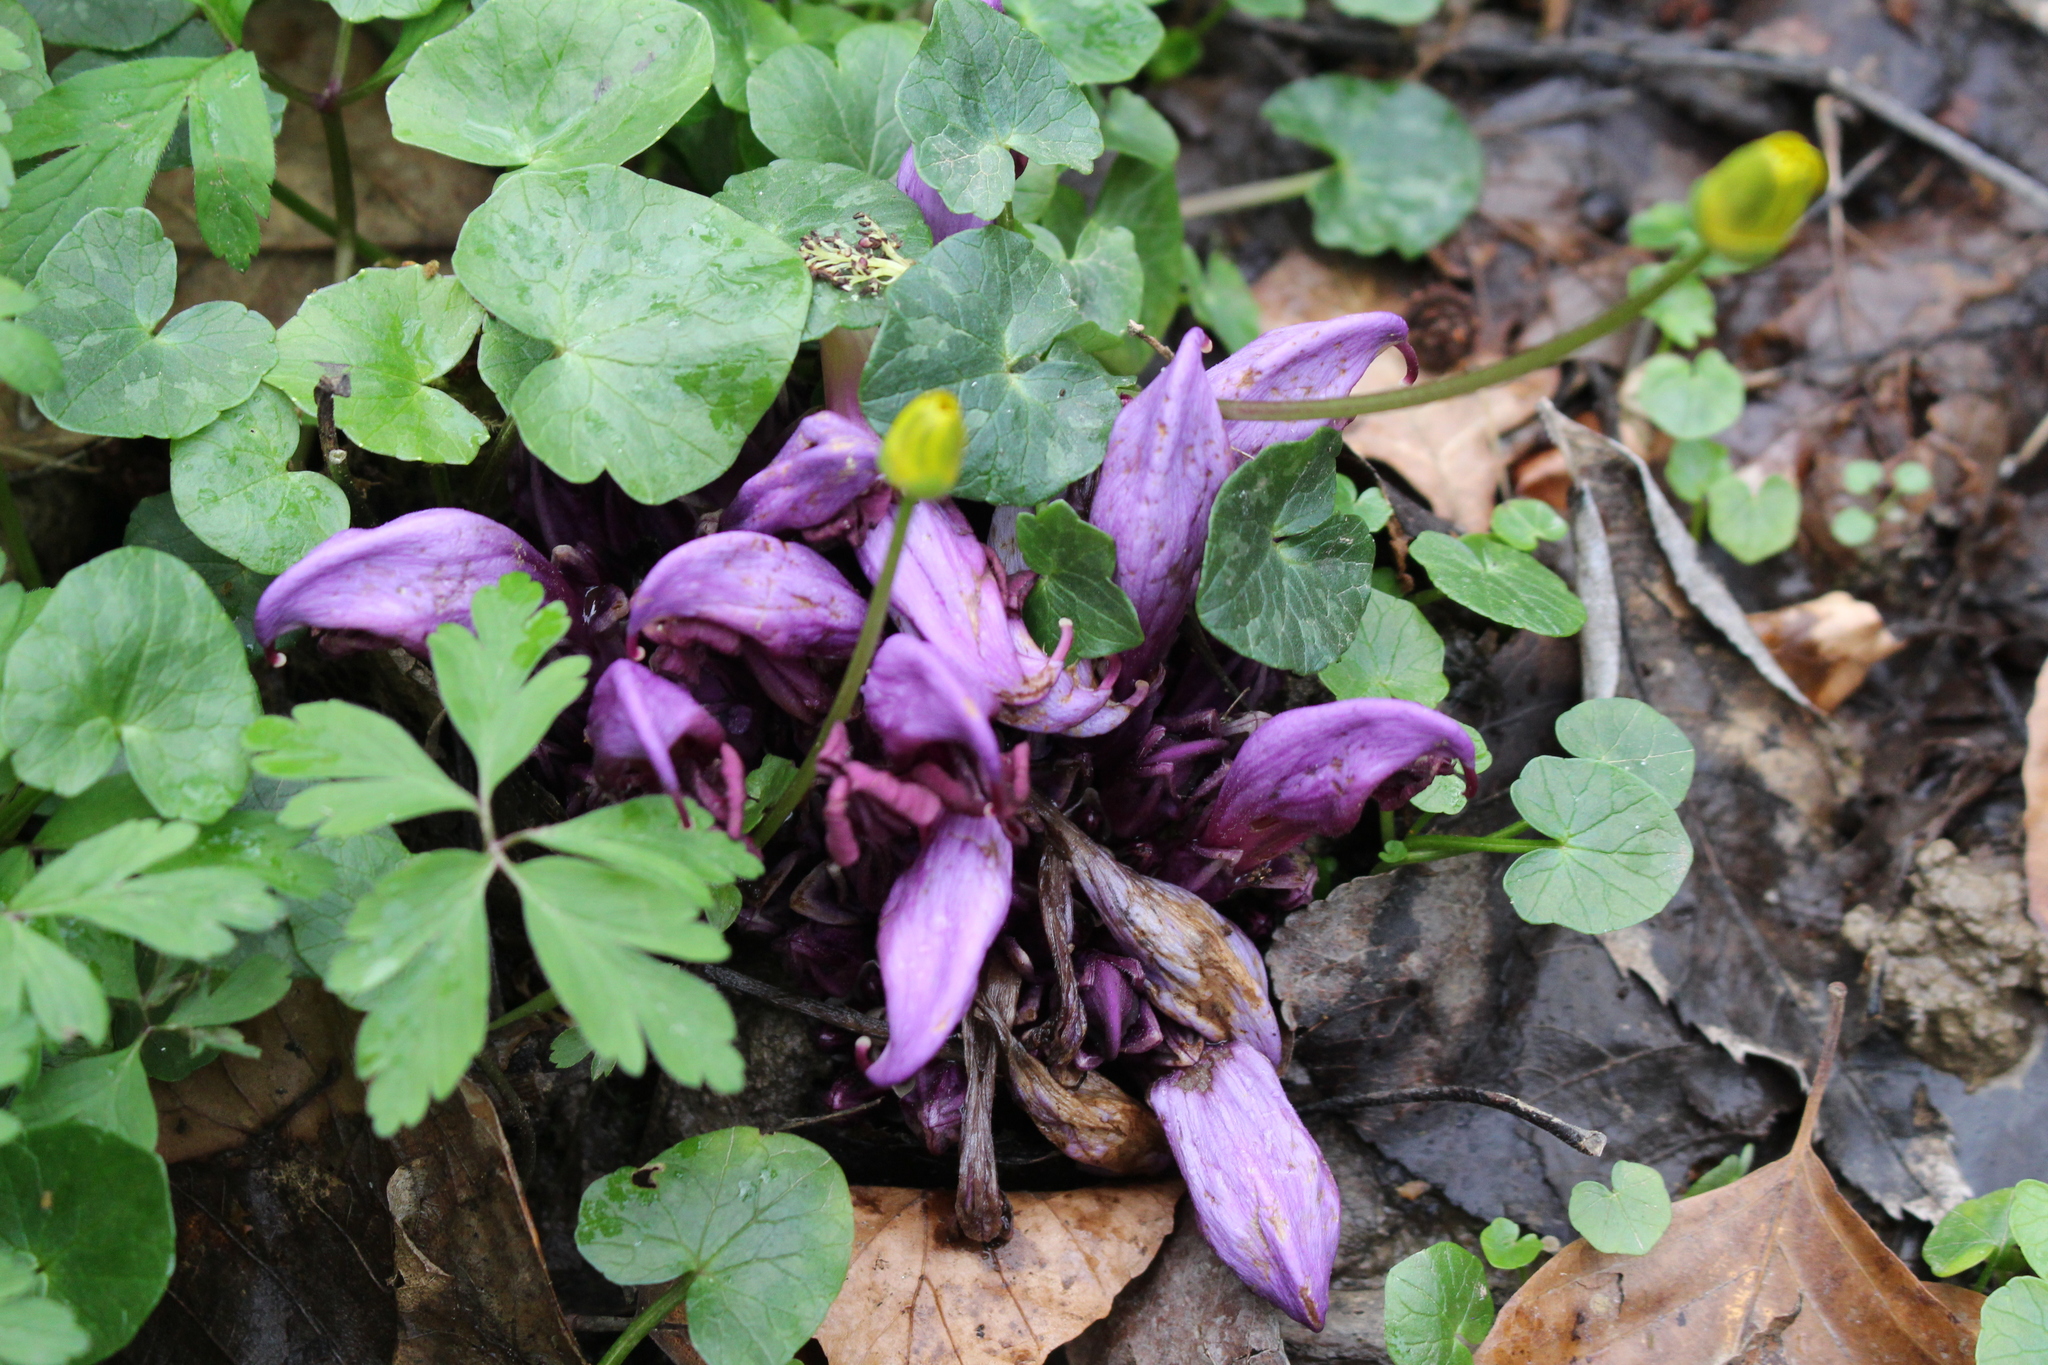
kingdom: Plantae
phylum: Tracheophyta
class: Magnoliopsida
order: Lamiales
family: Orobanchaceae
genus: Lathraea
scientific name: Lathraea clandestina
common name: Purple toothwort
